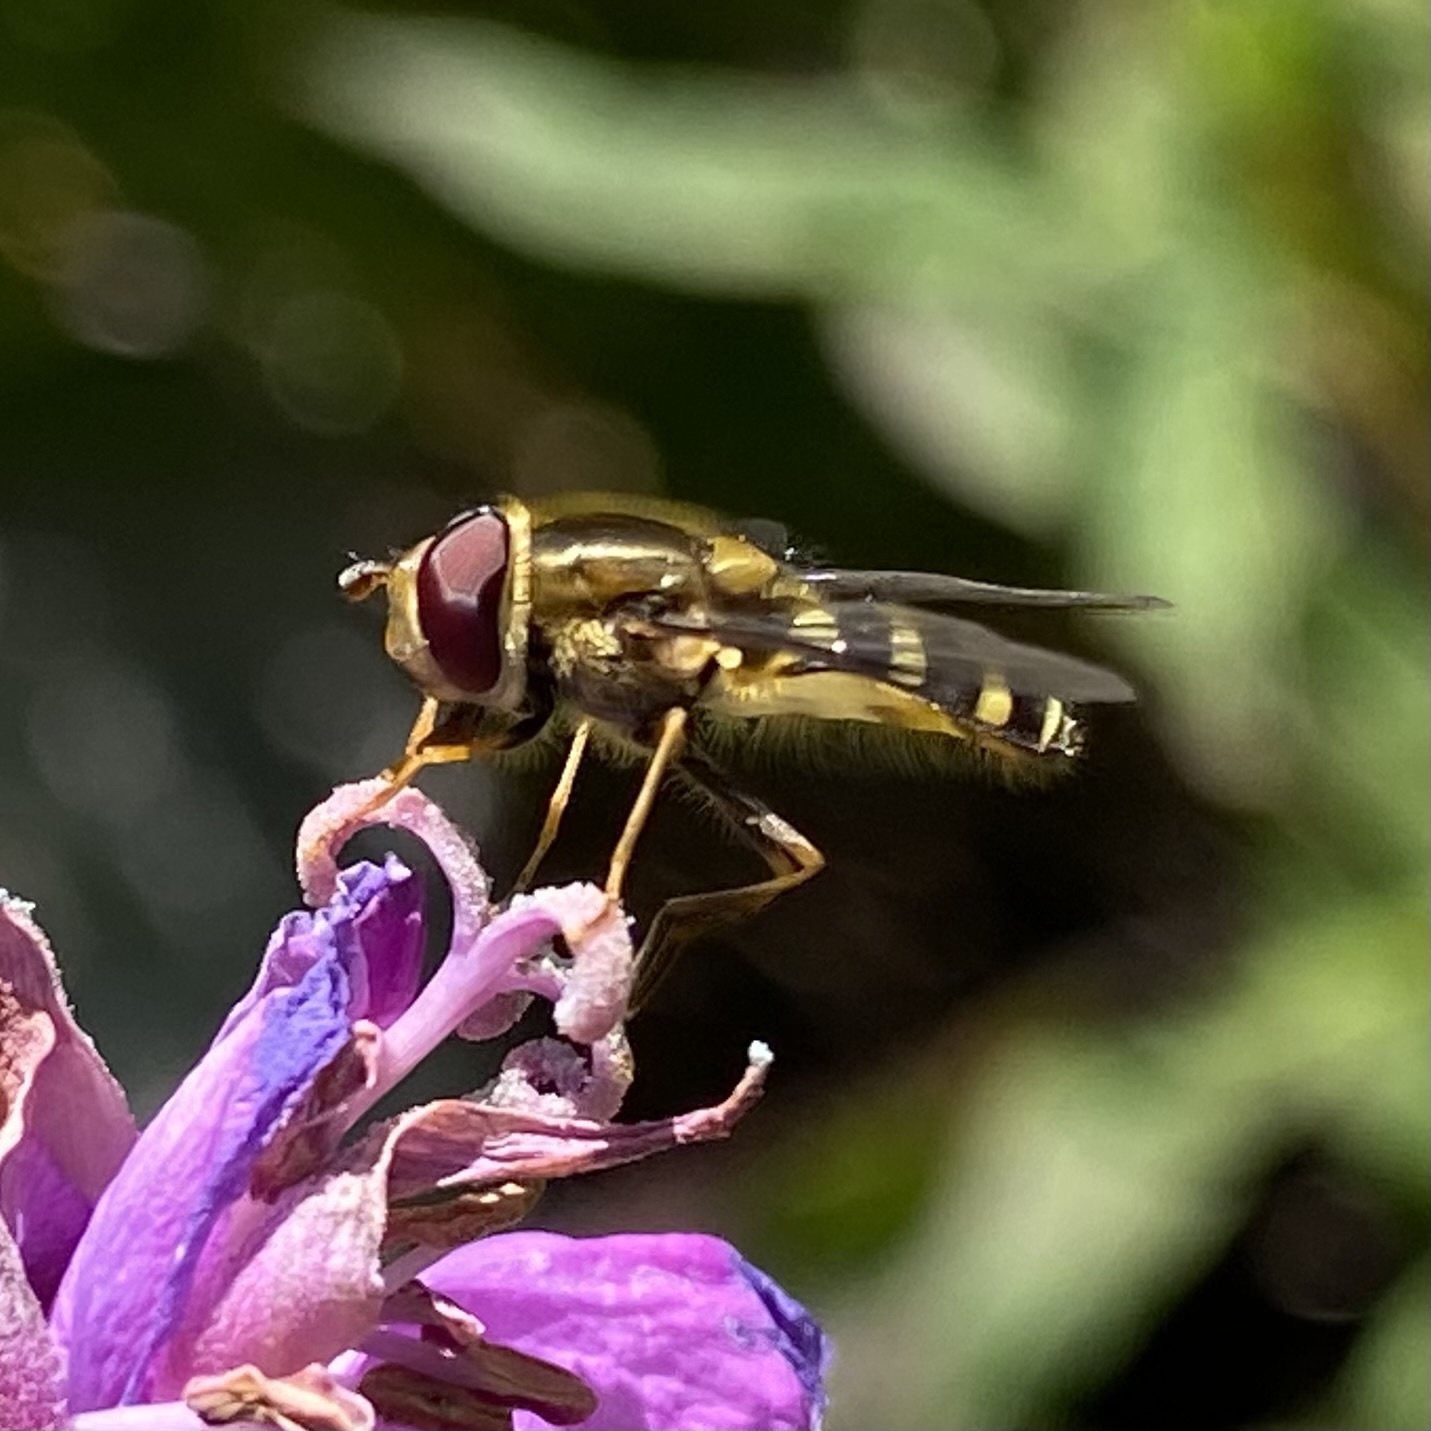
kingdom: Animalia
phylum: Arthropoda
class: Insecta
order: Diptera
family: Syrphidae
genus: Syrphus
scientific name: Syrphus opinator
